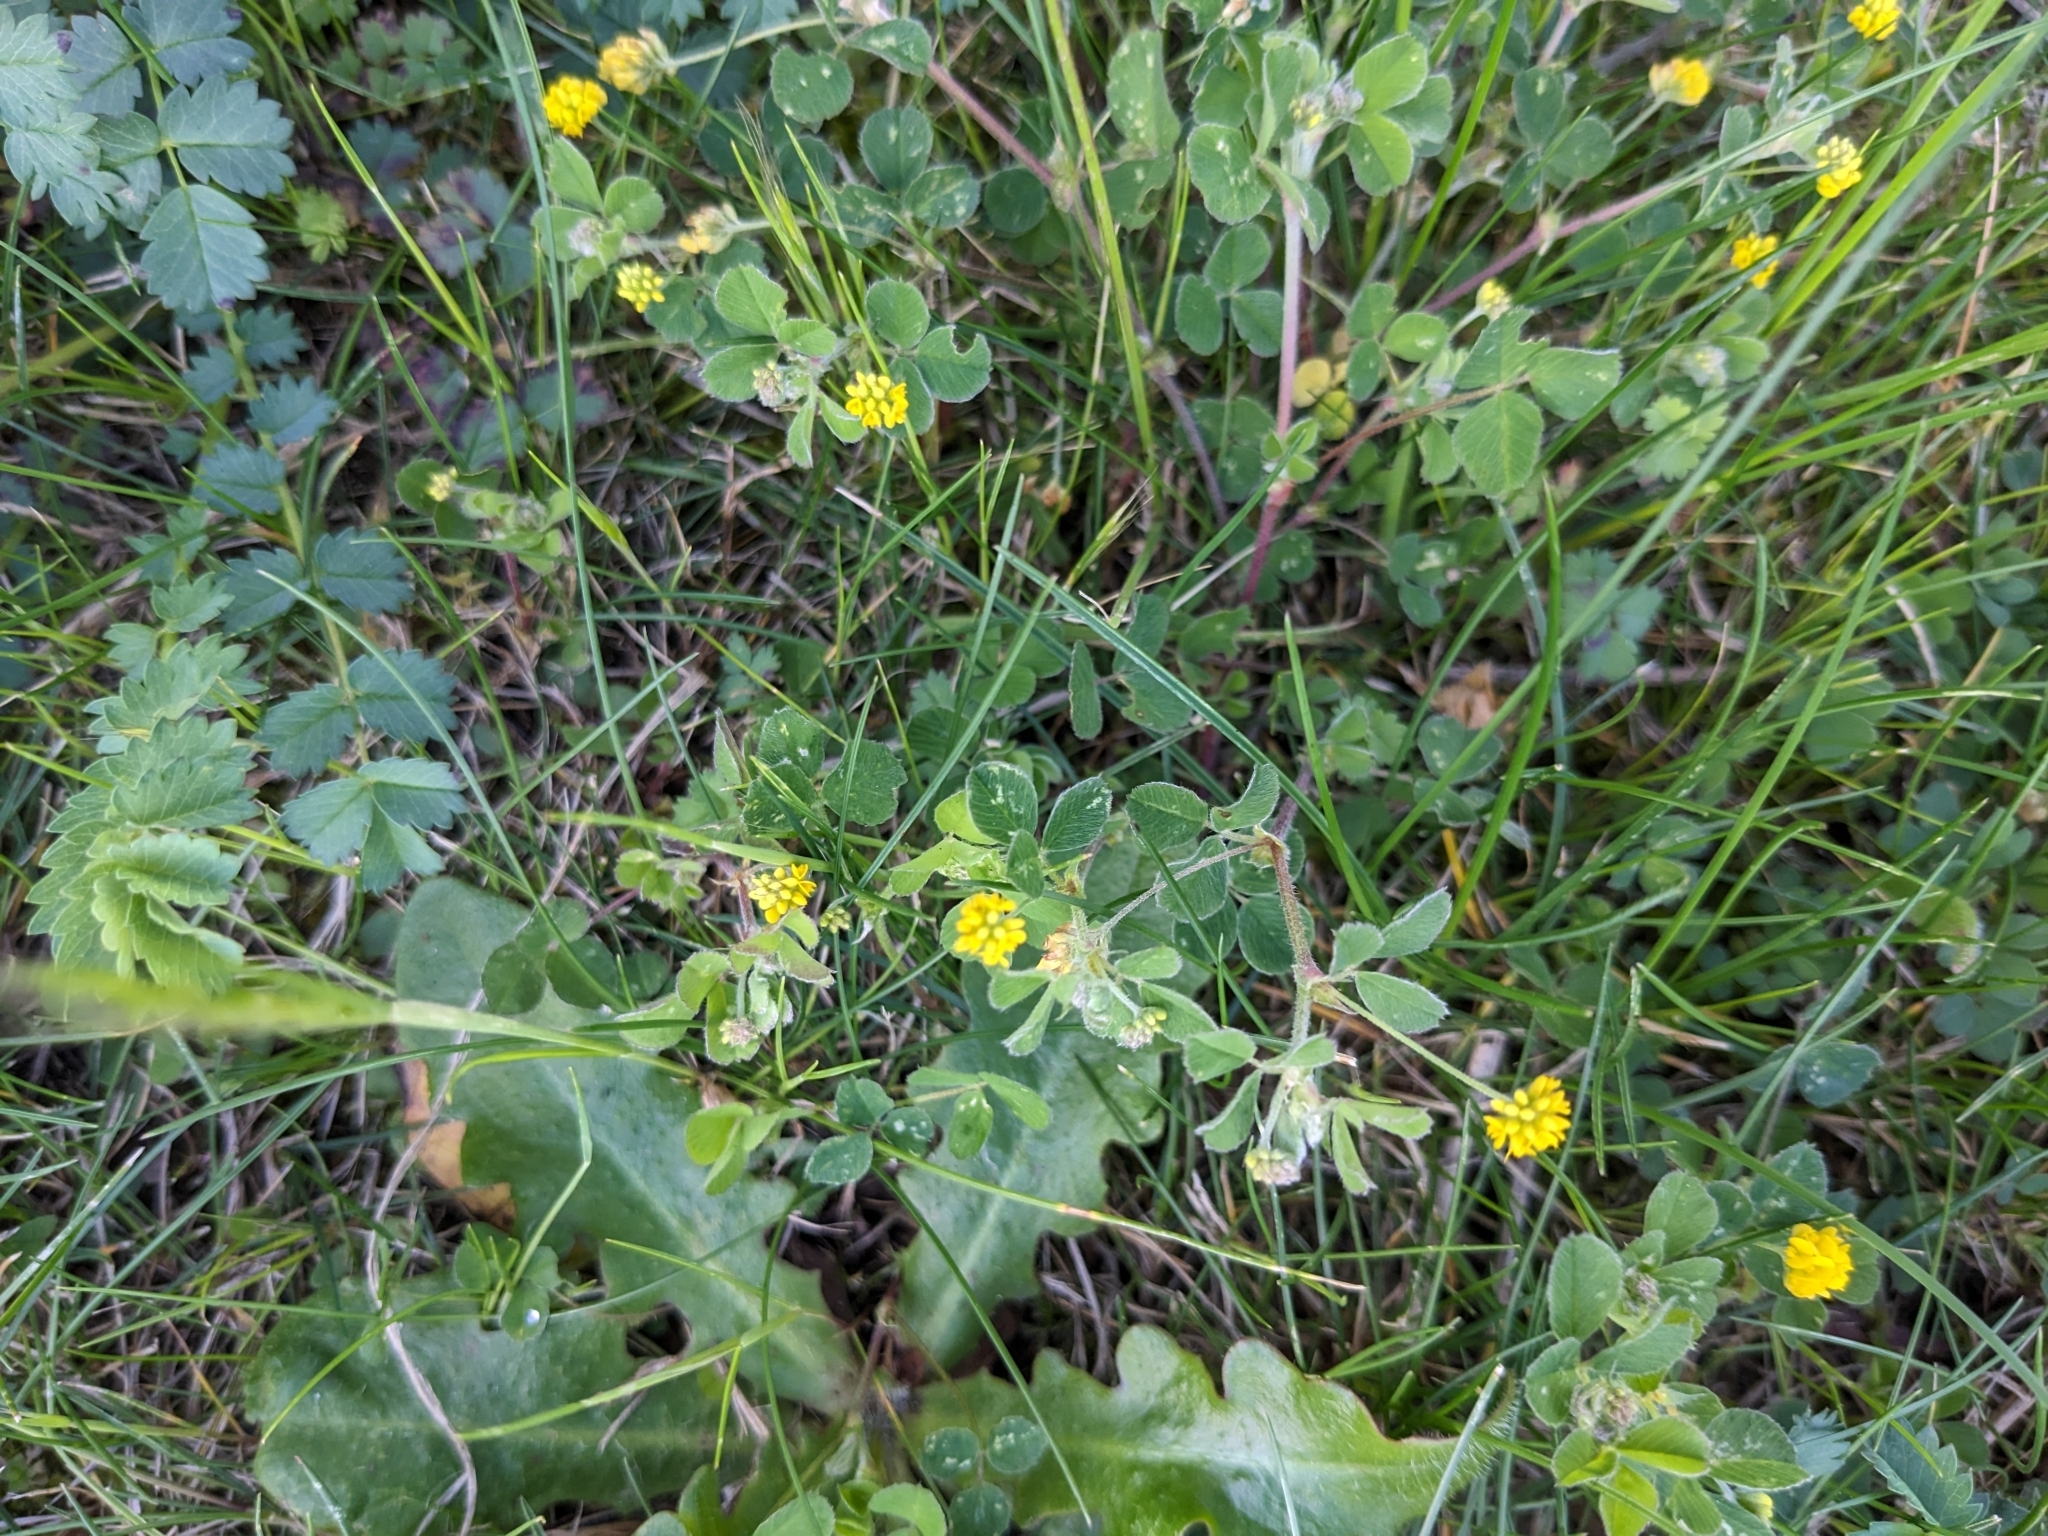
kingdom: Plantae
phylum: Tracheophyta
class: Magnoliopsida
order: Fabales
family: Fabaceae
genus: Medicago
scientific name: Medicago lupulina
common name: Black medick
